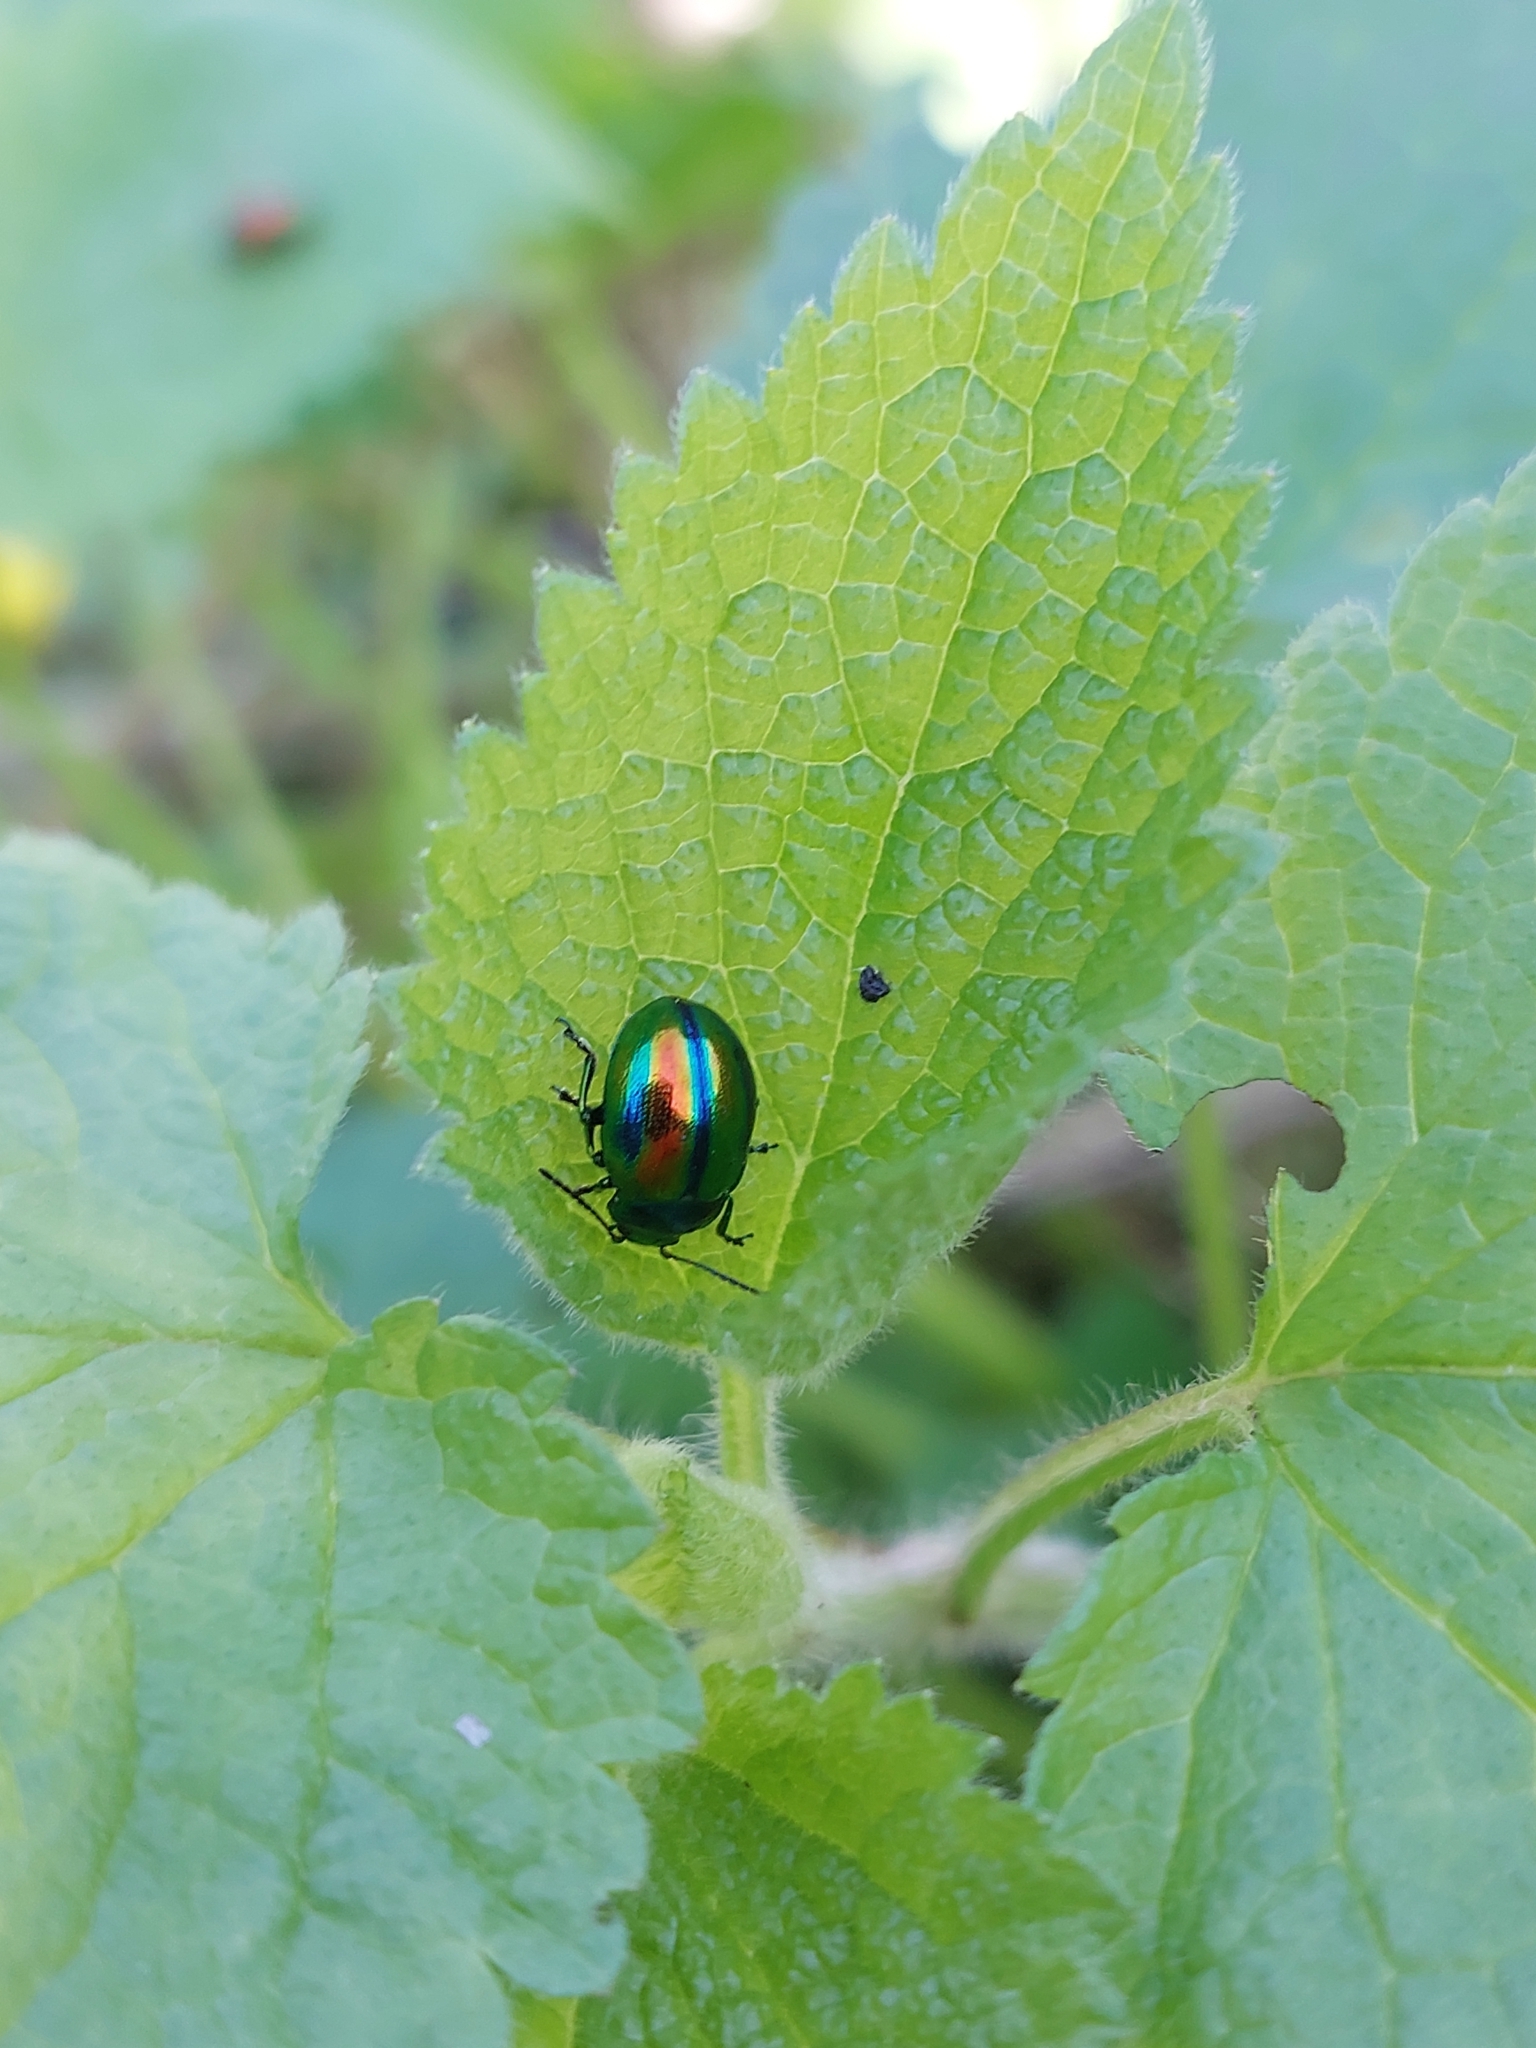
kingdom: Animalia
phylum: Arthropoda
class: Insecta
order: Coleoptera
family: Chrysomelidae
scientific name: Chrysomelidae
